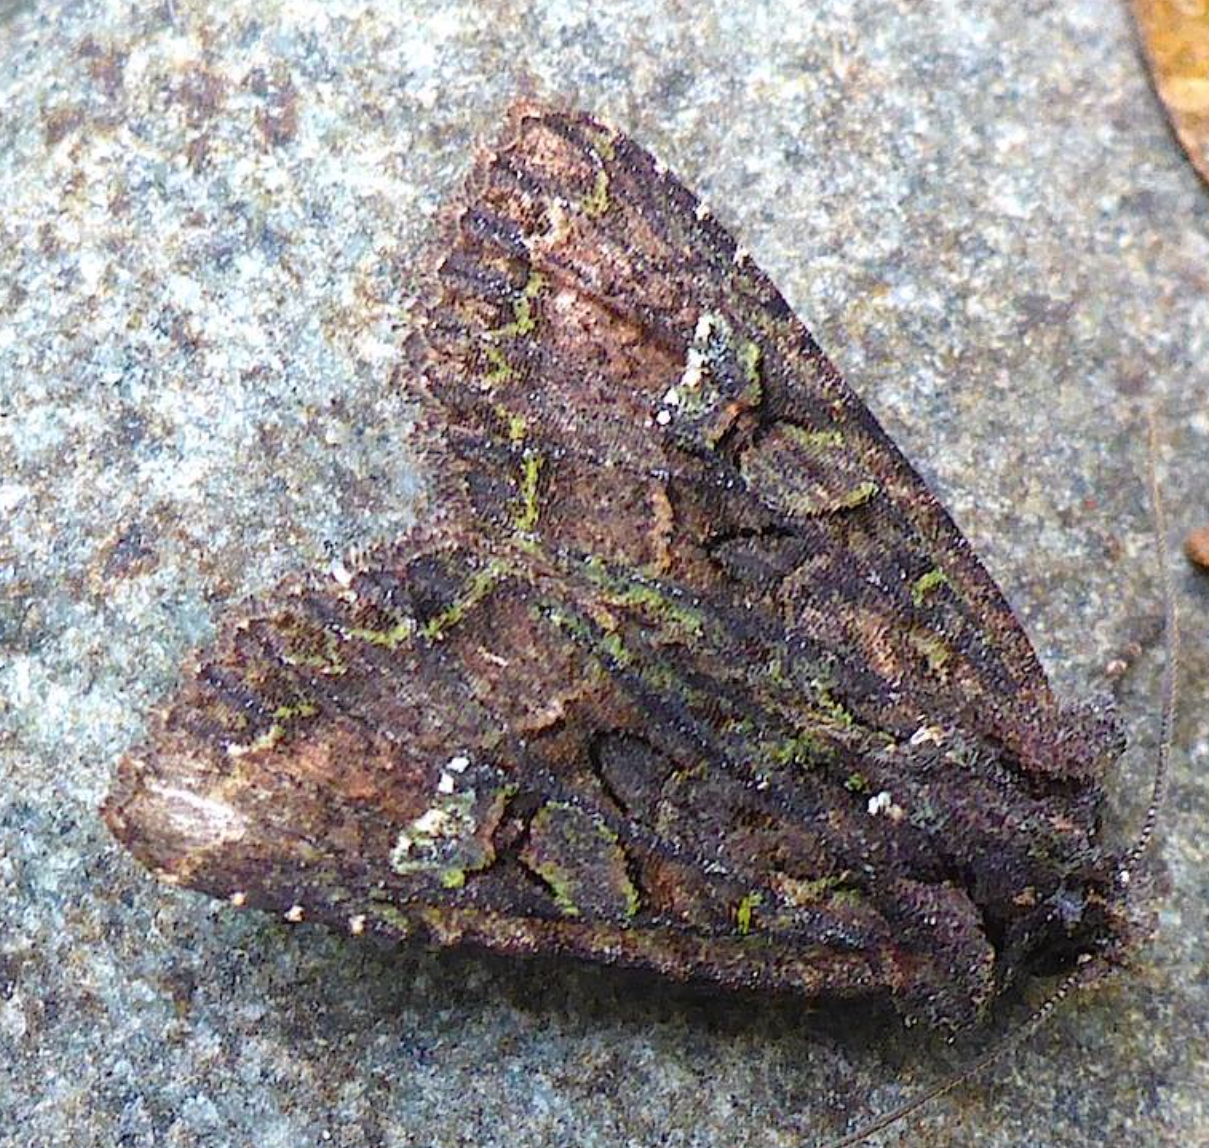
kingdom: Animalia
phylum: Arthropoda
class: Insecta
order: Lepidoptera
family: Noctuidae
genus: Meterana
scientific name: Meterana ochthistis
